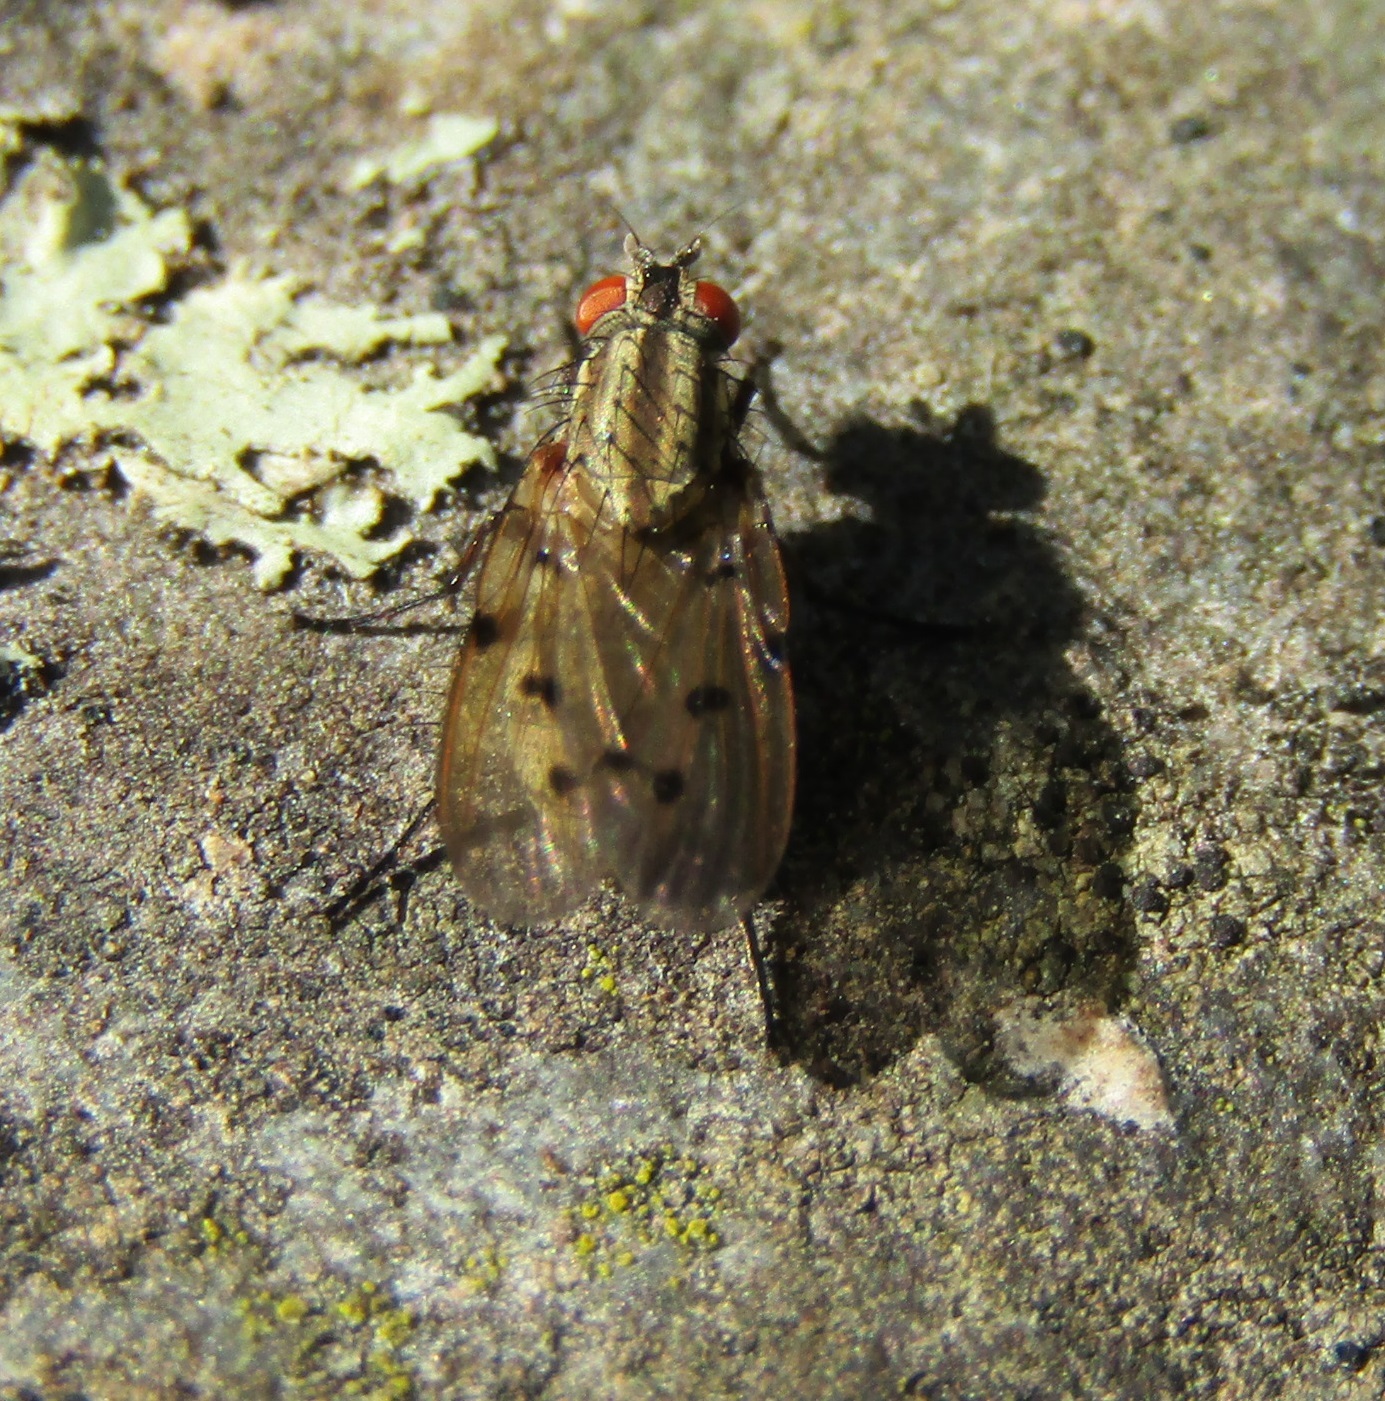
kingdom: Animalia
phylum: Arthropoda
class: Insecta
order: Diptera
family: Anthomyiidae
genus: Anthomyia
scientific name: Anthomyia punctipennis
